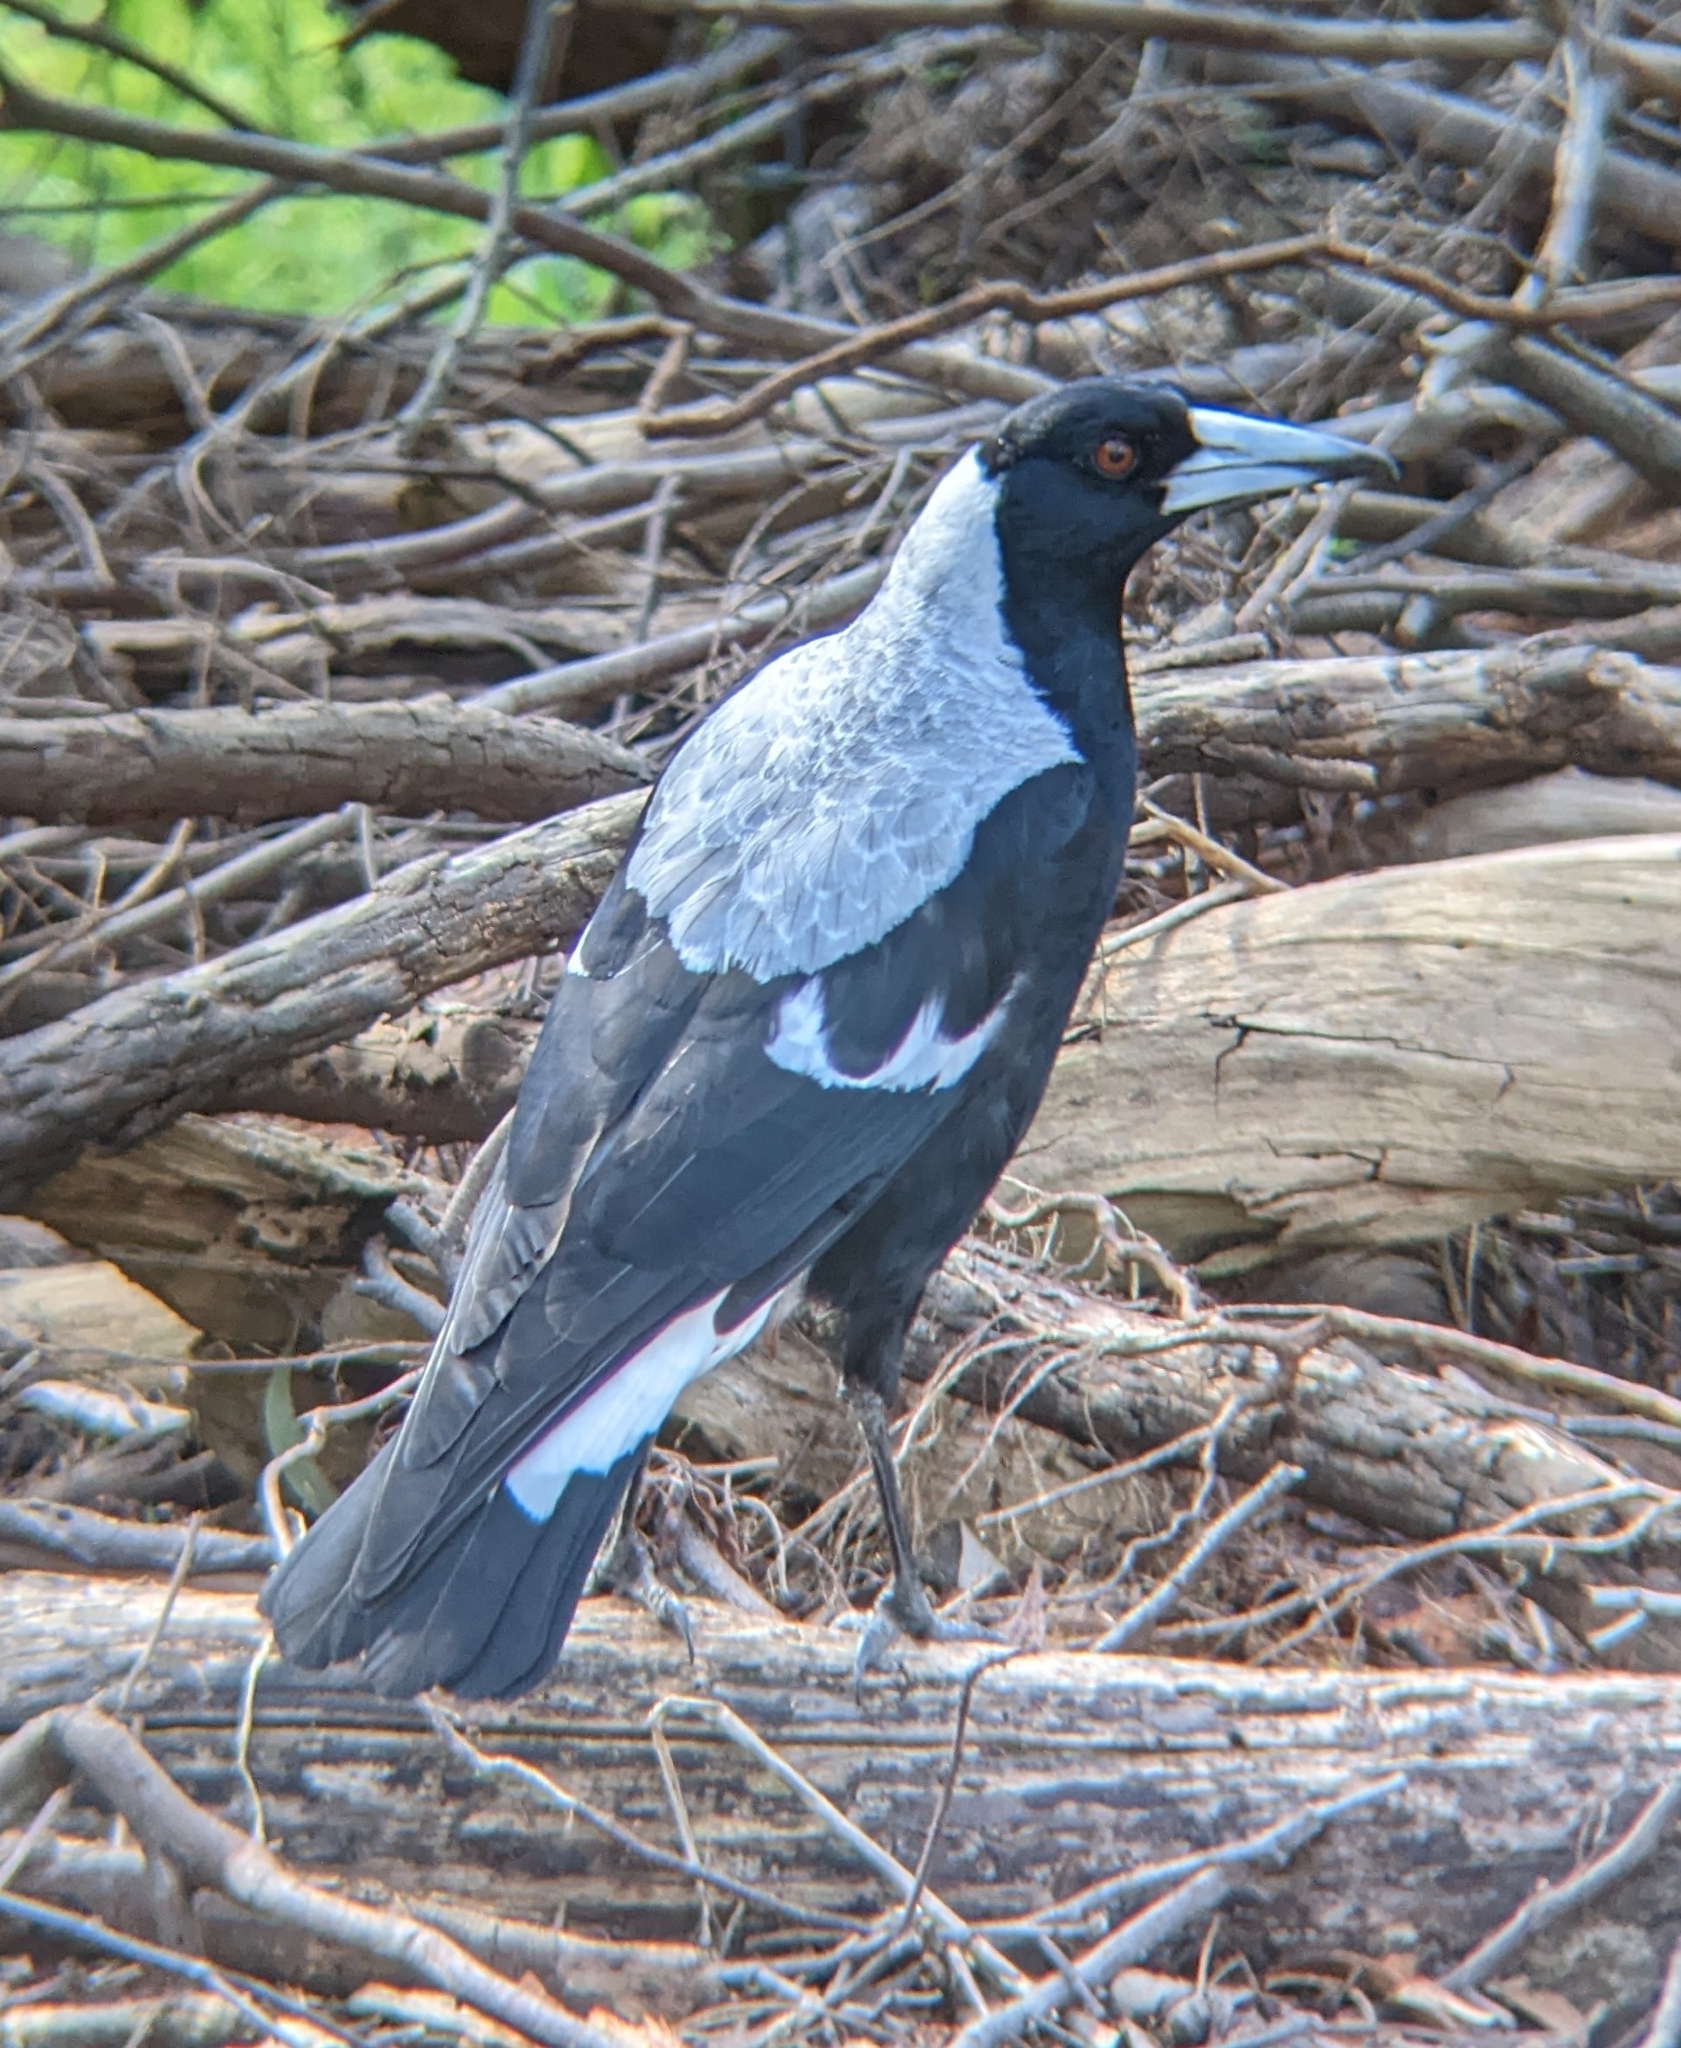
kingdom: Animalia
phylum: Chordata
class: Aves
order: Passeriformes
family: Cracticidae
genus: Gymnorhina
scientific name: Gymnorhina tibicen
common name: Australian magpie
